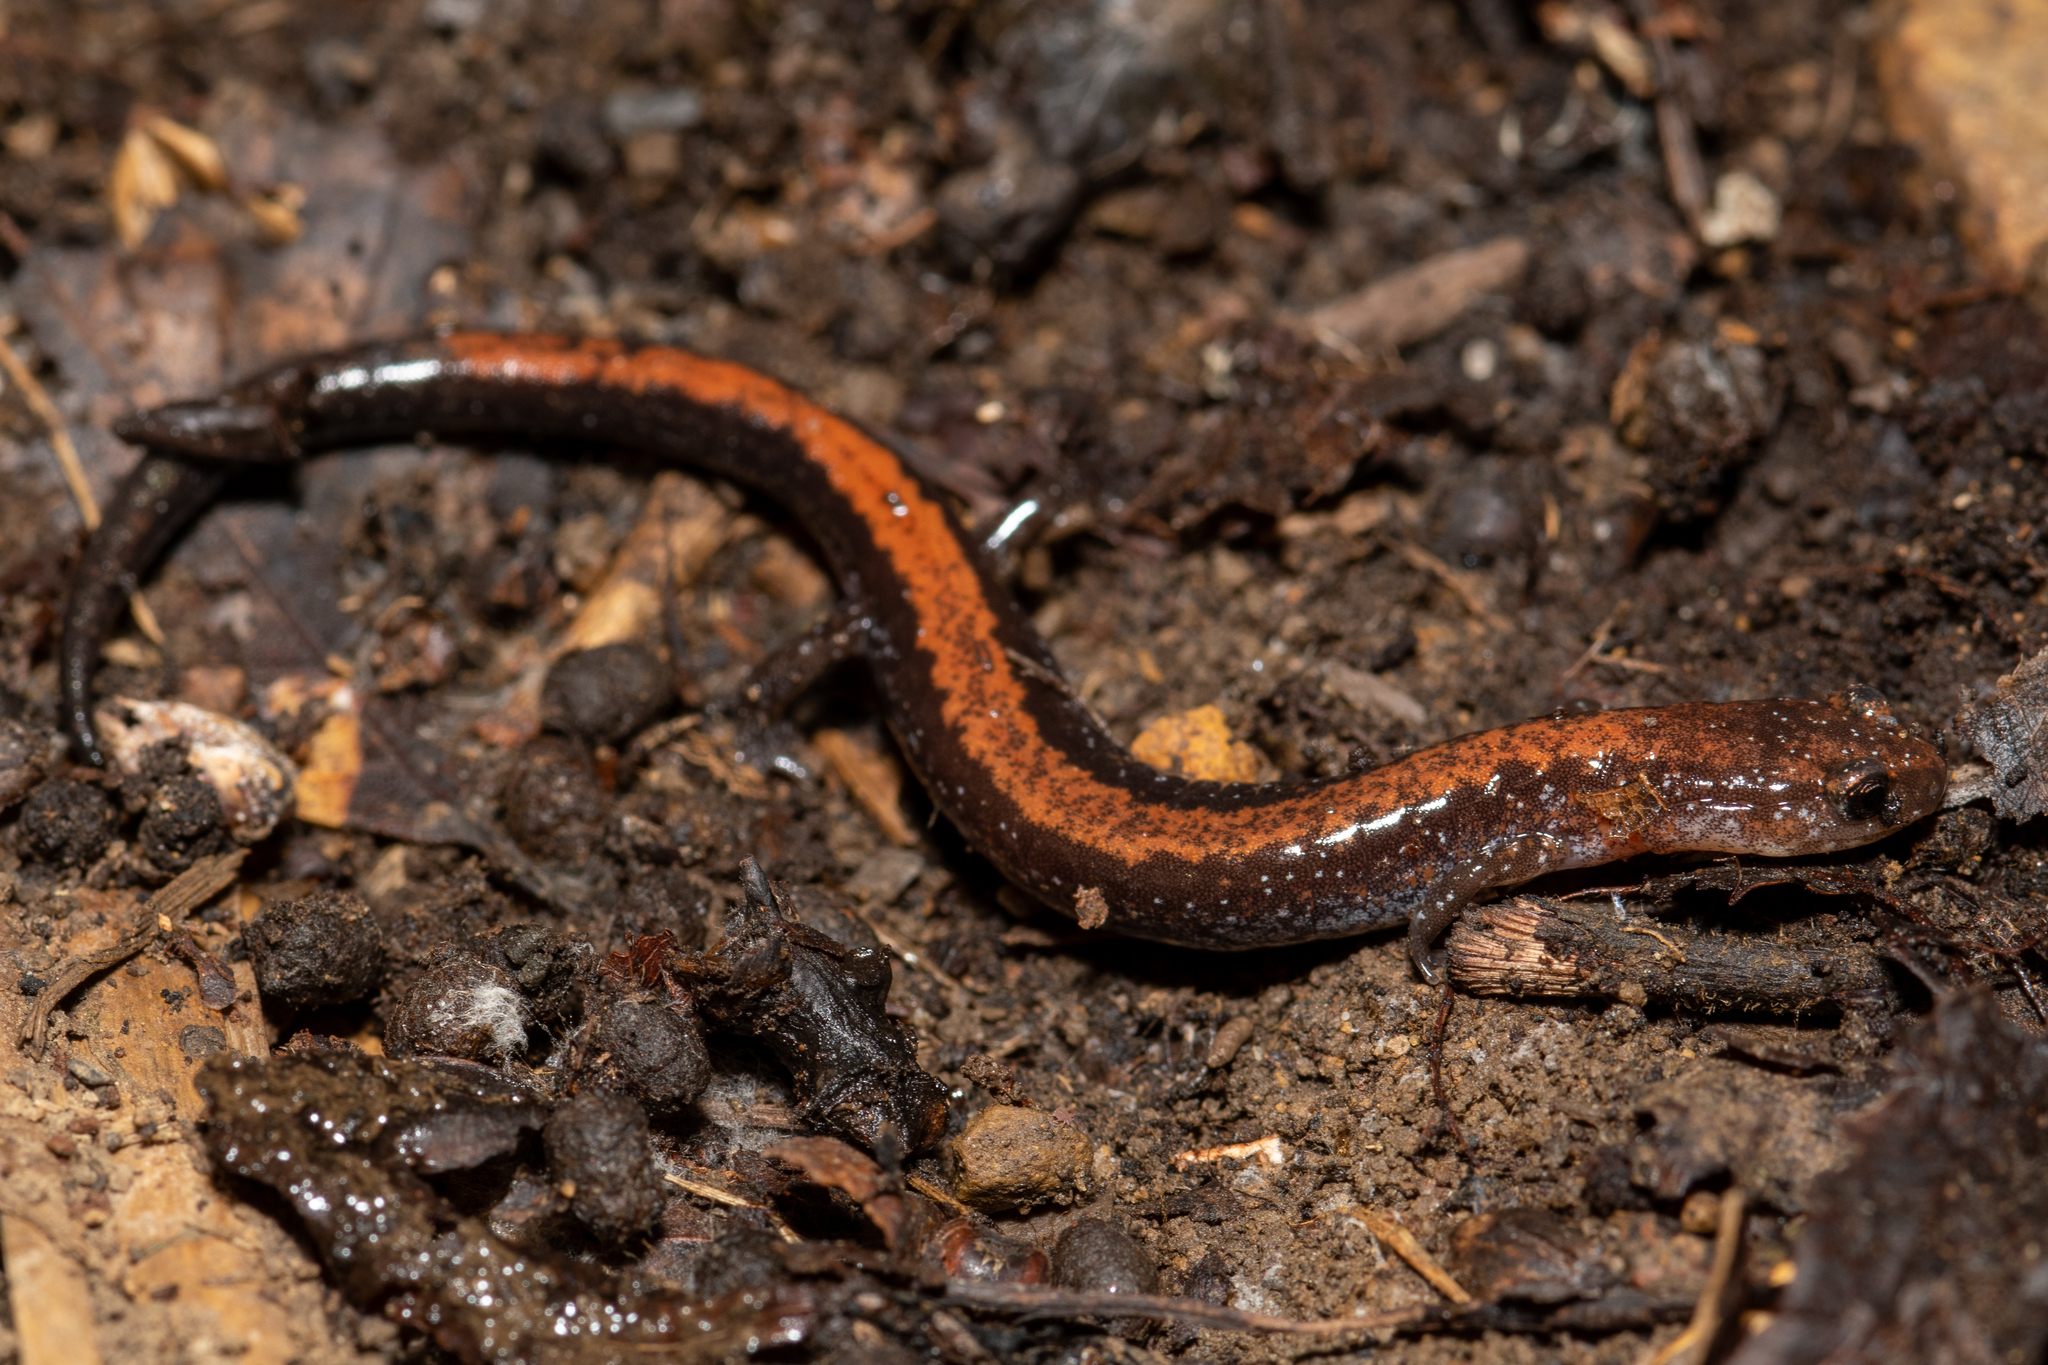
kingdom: Animalia
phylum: Chordata
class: Amphibia
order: Caudata
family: Plethodontidae
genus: Plethodon
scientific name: Plethodon cinereus
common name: Redback salamander
